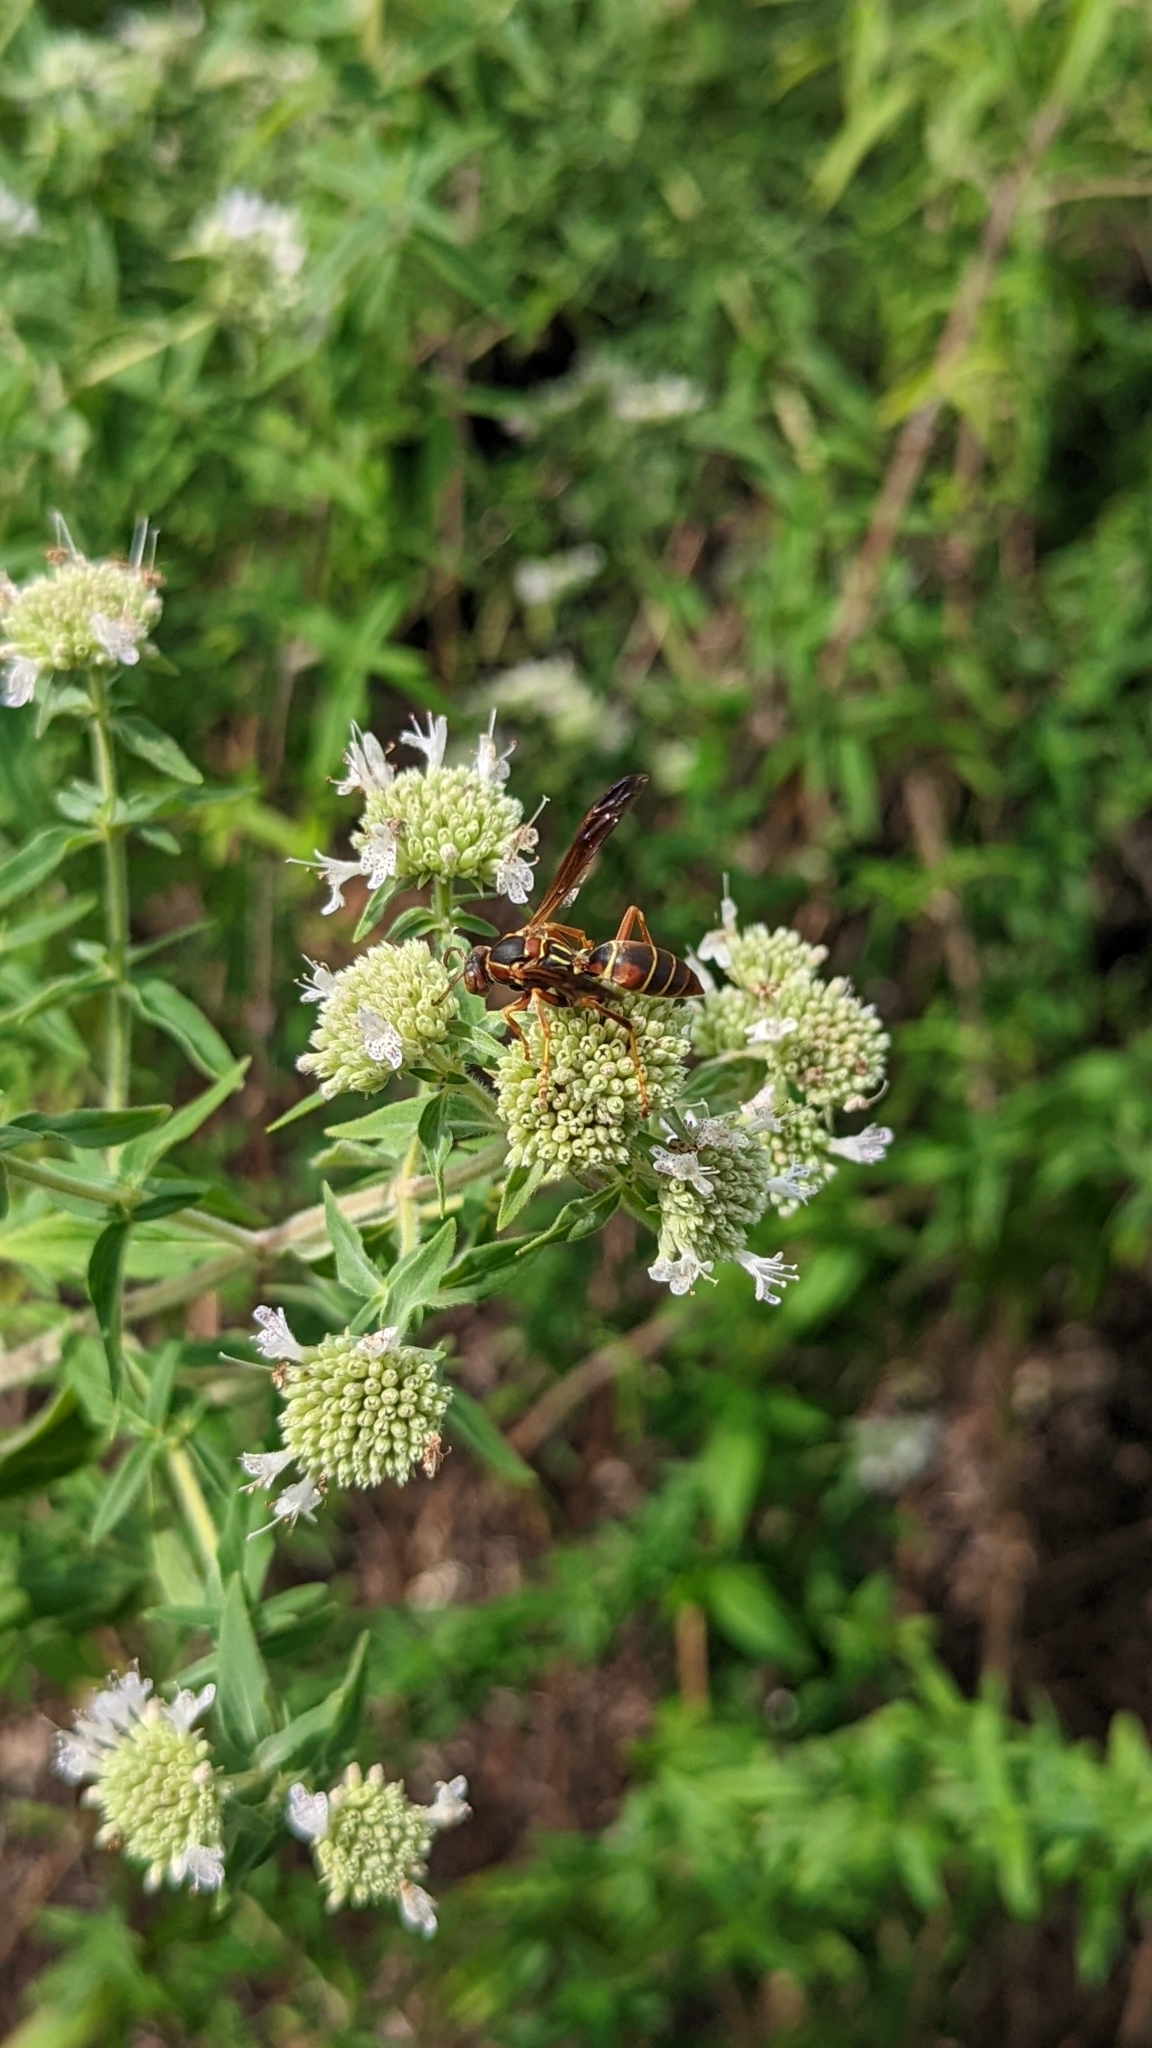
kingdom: Animalia
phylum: Arthropoda
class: Insecta
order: Hymenoptera
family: Eumenidae
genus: Polistes
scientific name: Polistes fuscatus
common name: Dark paper wasp
